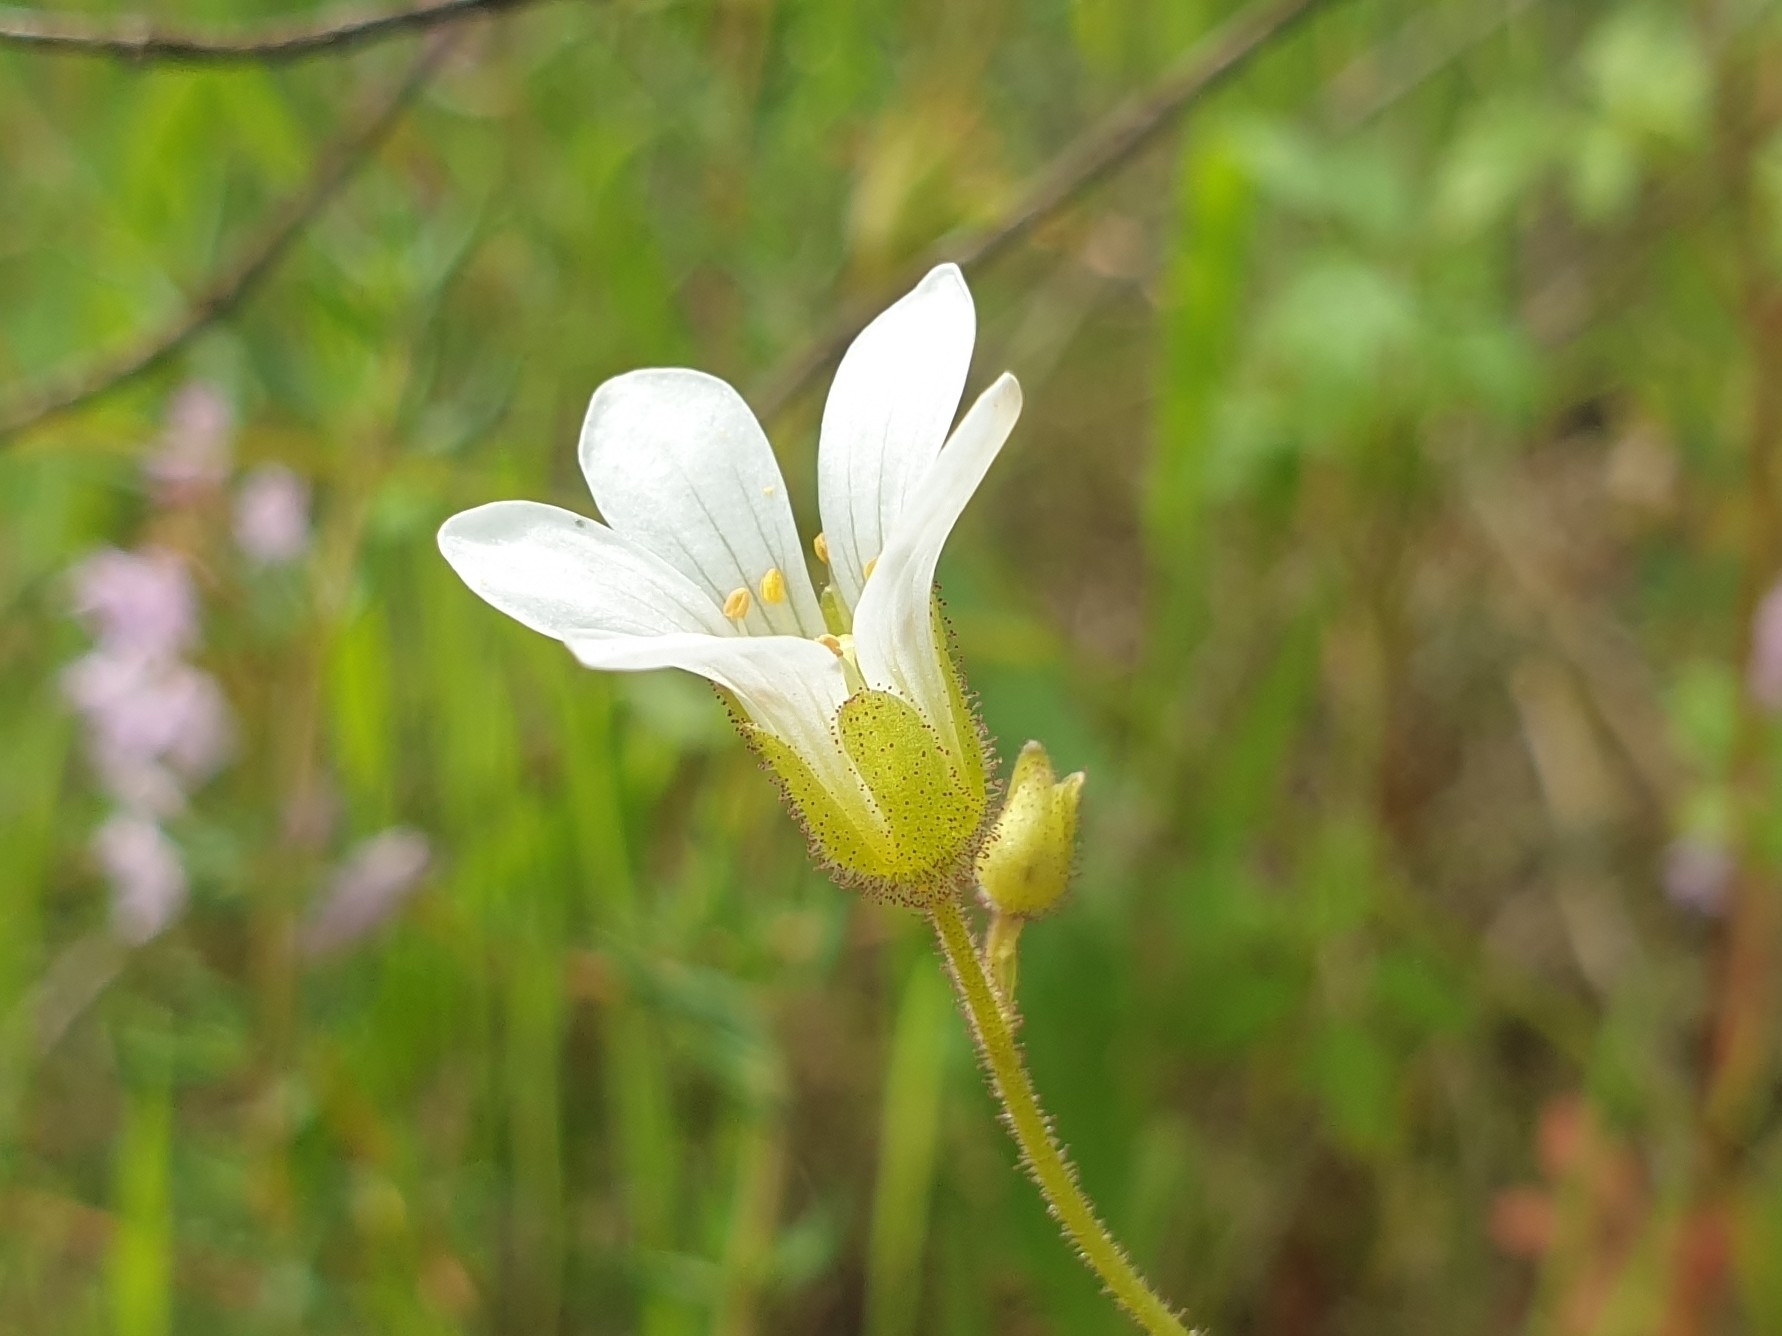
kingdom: Plantae
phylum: Tracheophyta
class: Magnoliopsida
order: Saxifragales
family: Saxifragaceae
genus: Saxifraga
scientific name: Saxifraga granulata
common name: Meadow saxifrage
